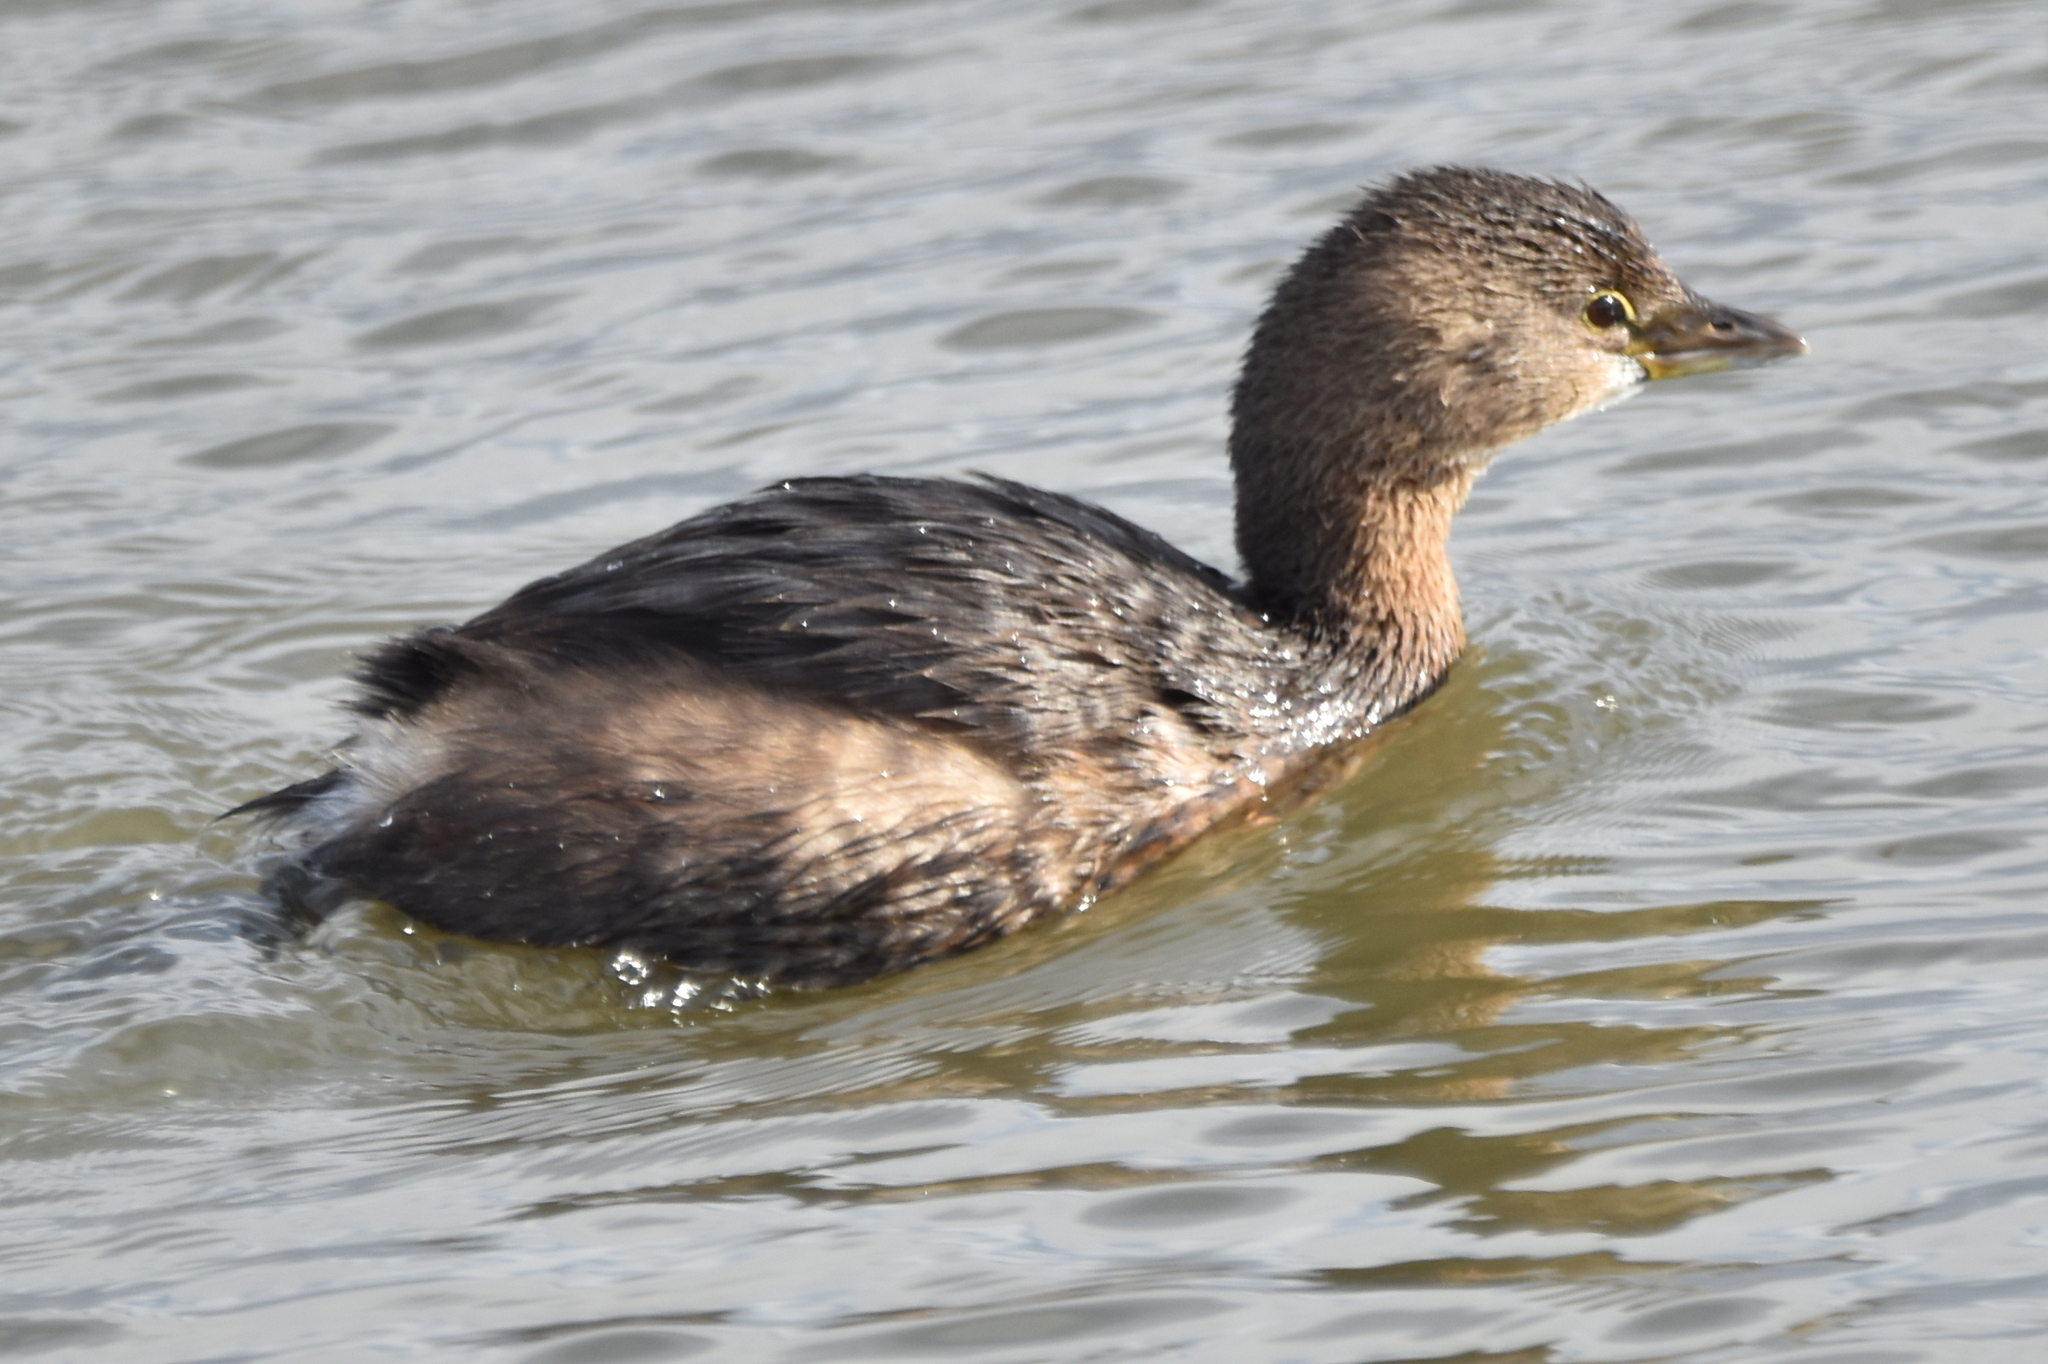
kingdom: Animalia
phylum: Chordata
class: Aves
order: Podicipediformes
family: Podicipedidae
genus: Podilymbus
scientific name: Podilymbus podiceps
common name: Pied-billed grebe
